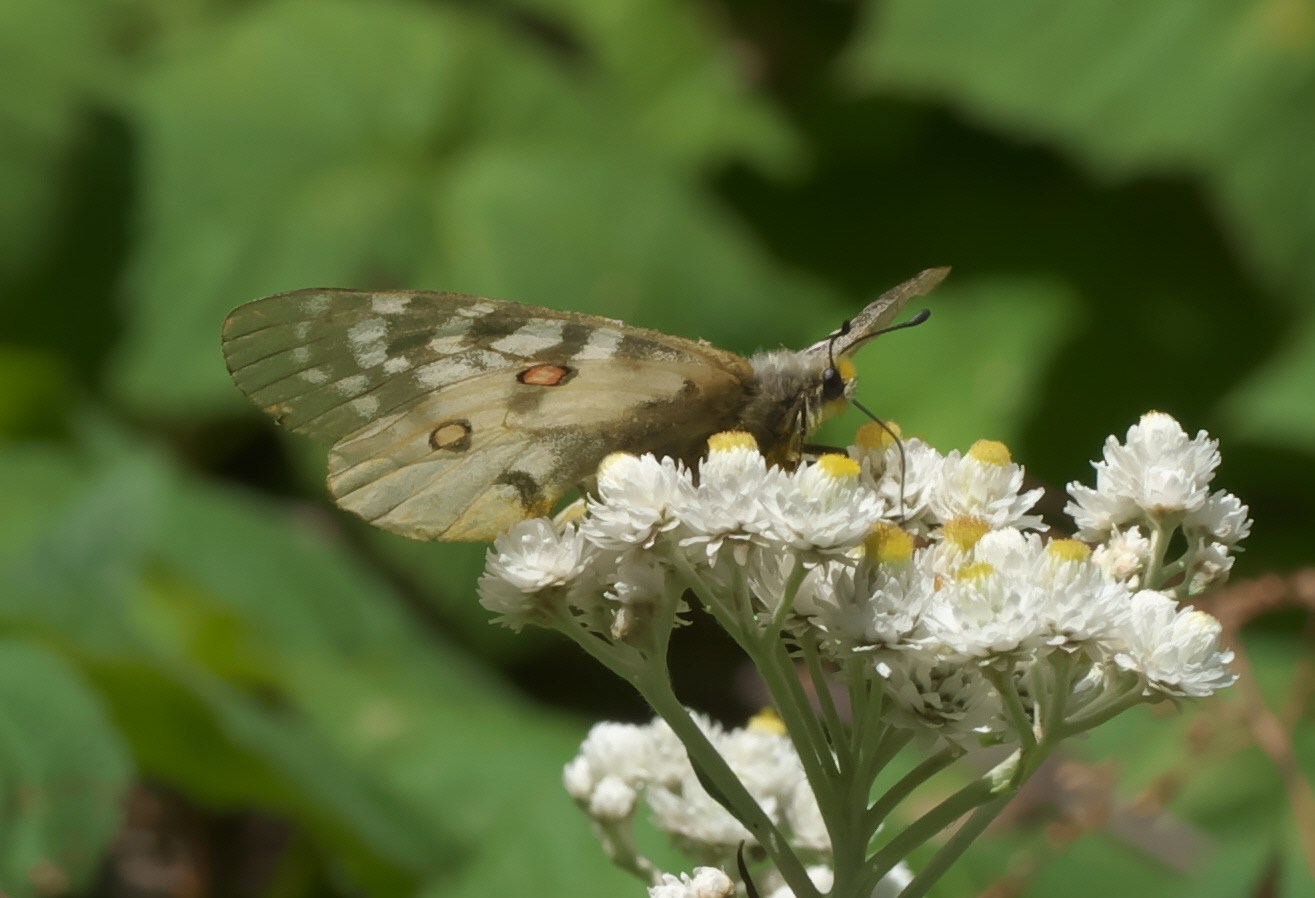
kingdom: Animalia
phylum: Arthropoda
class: Insecta
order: Lepidoptera
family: Papilionidae
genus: Parnassius
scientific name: Parnassius clodius
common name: American apollo
